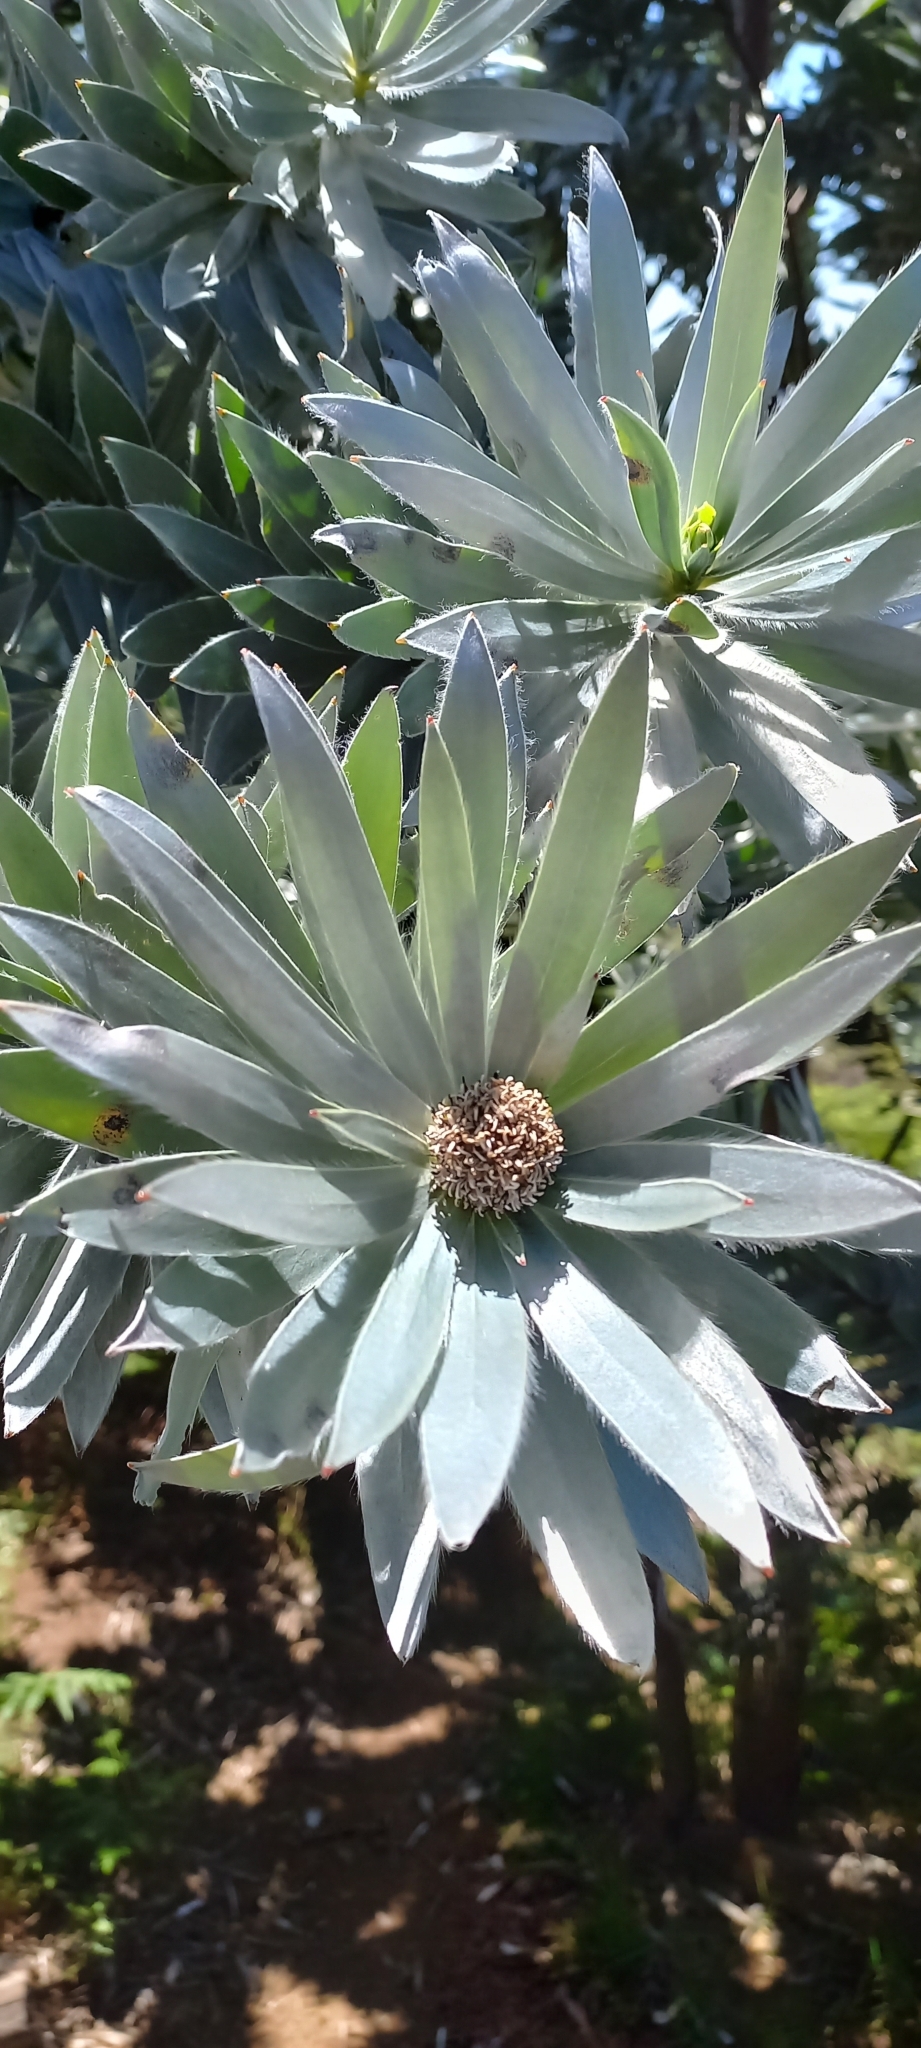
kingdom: Plantae
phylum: Tracheophyta
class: Magnoliopsida
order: Proteales
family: Proteaceae
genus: Leucadendron
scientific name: Leucadendron argenteum
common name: Cape silver tree
